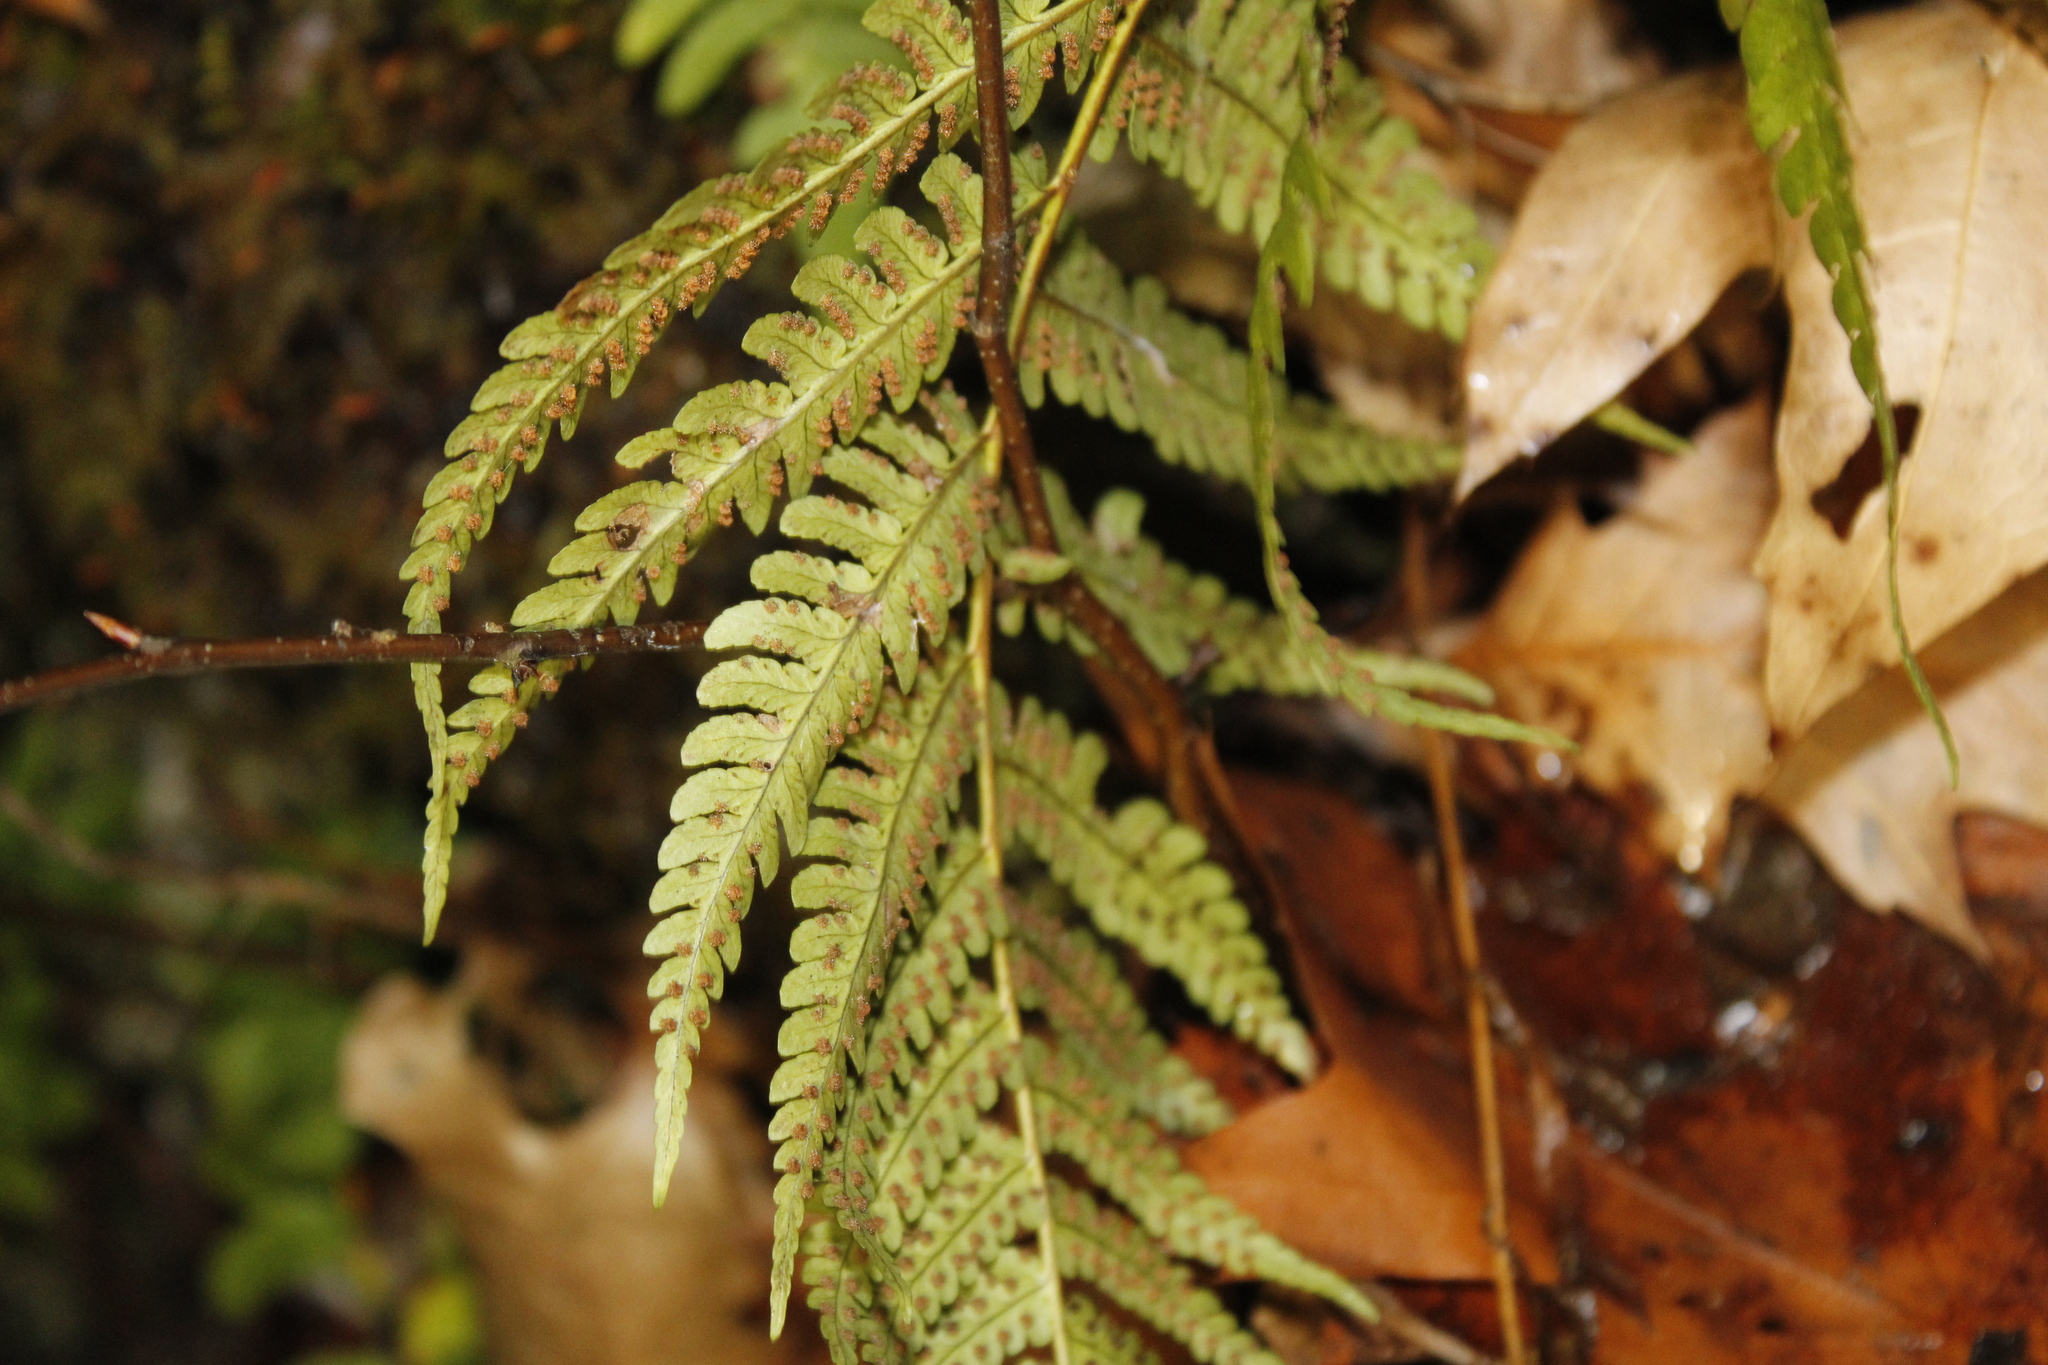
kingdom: Plantae
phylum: Tracheophyta
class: Polypodiopsida
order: Polypodiales
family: Dryopteridaceae
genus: Dryopteris
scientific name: Dryopteris marginalis
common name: Marginal wood fern
